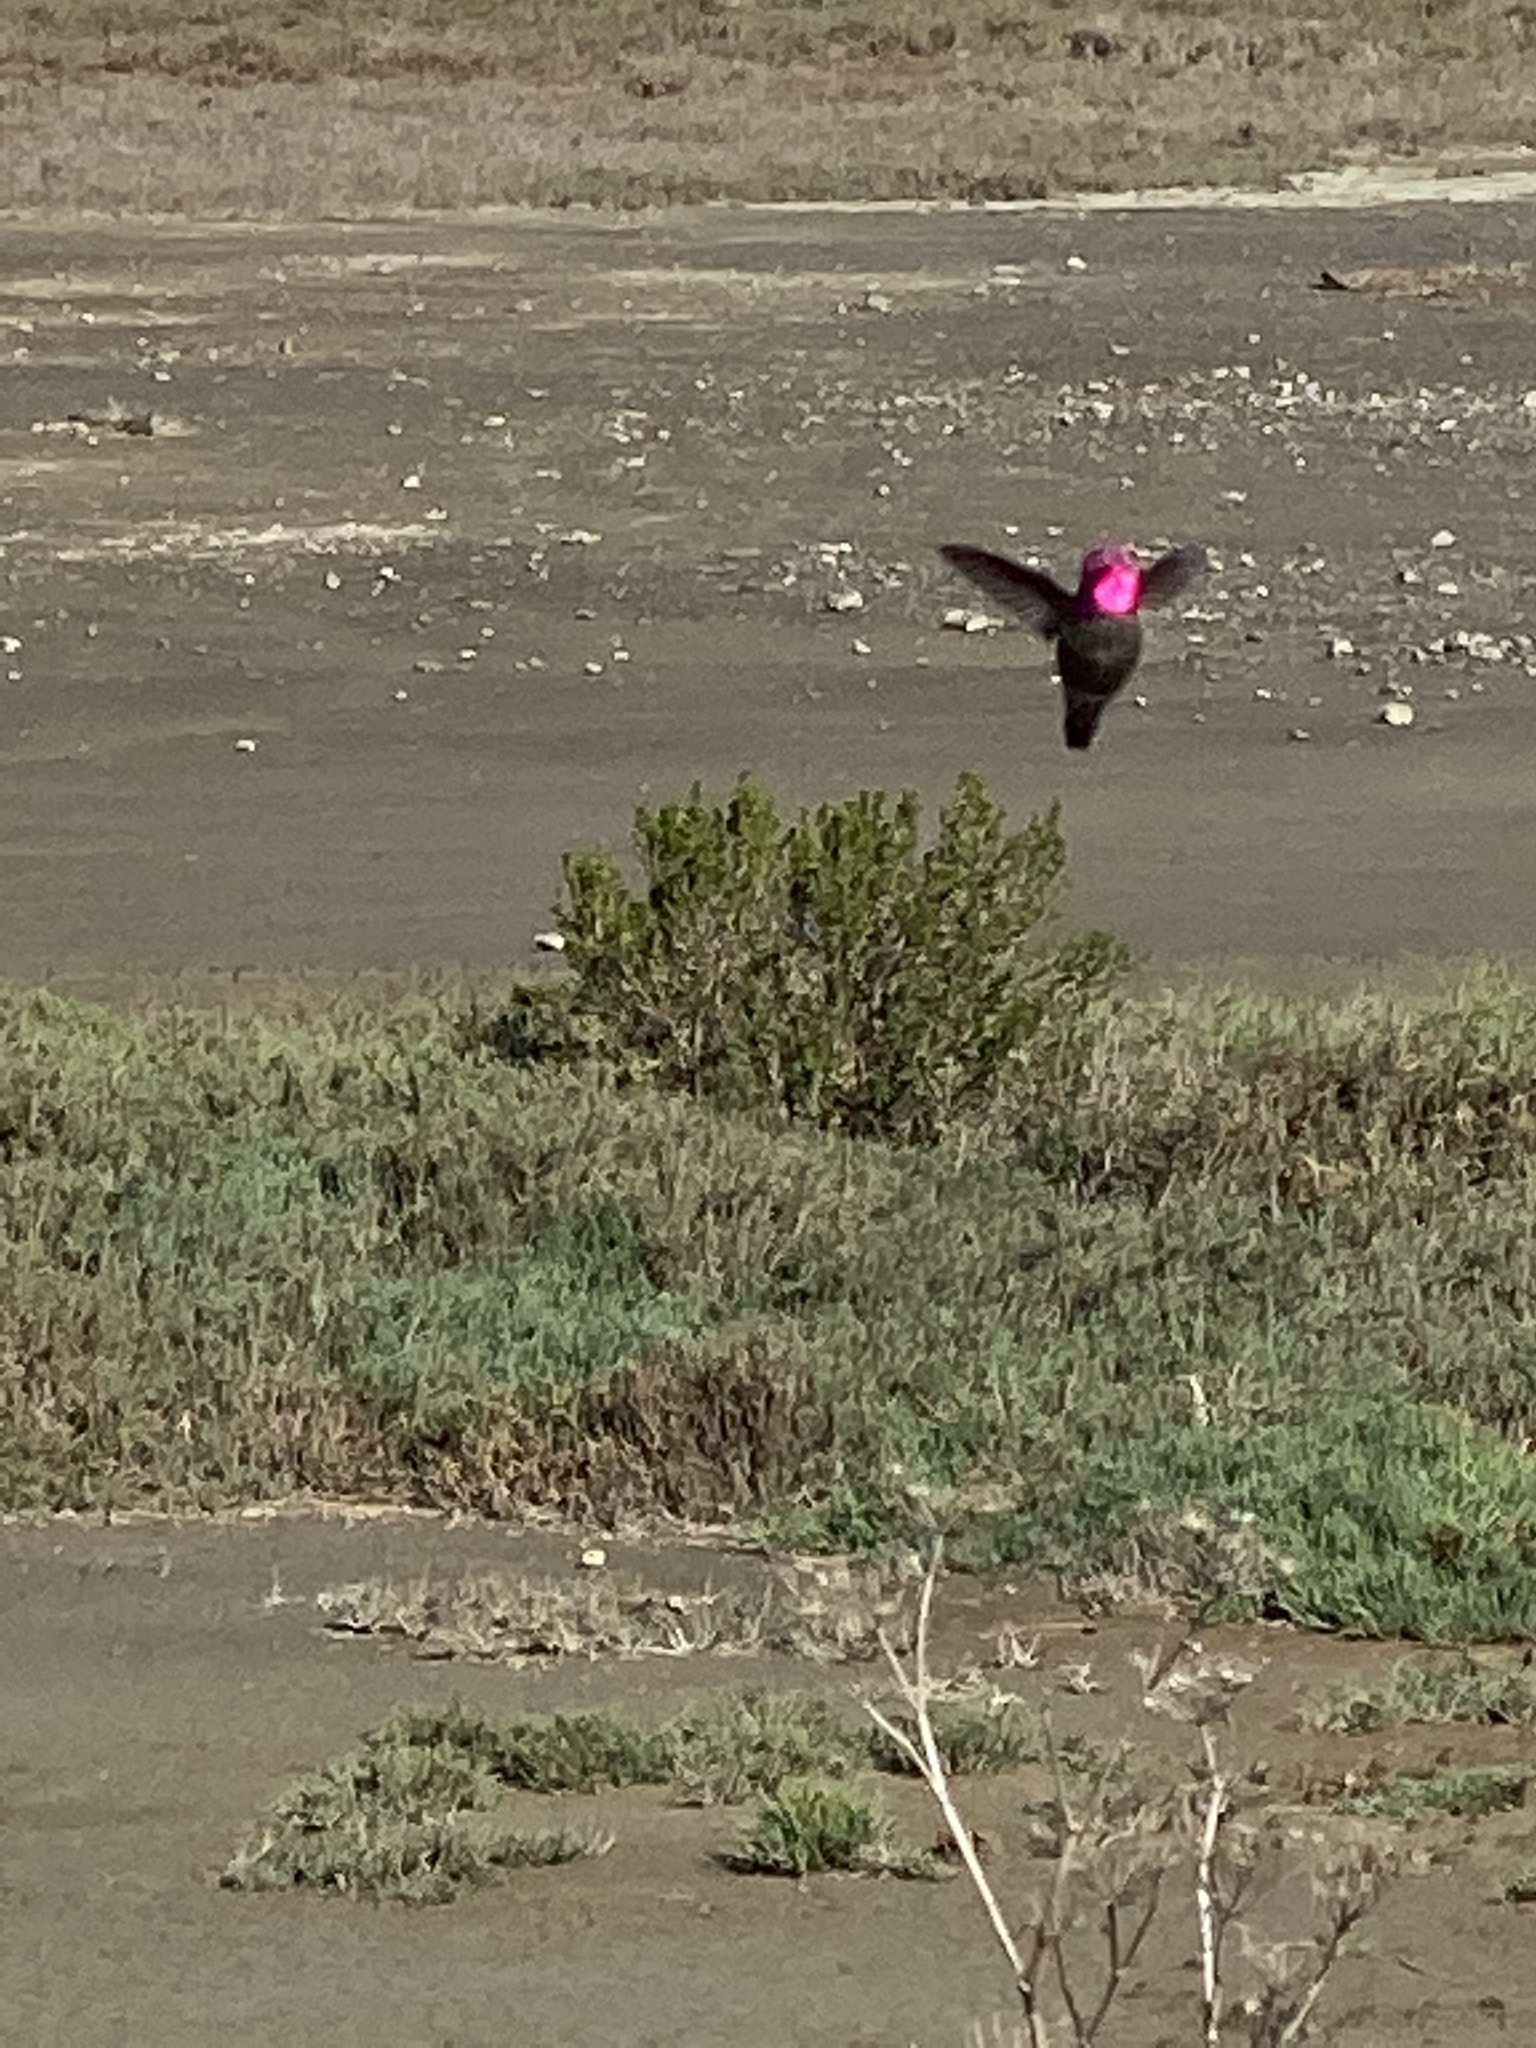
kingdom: Animalia
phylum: Chordata
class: Aves
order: Apodiformes
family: Trochilidae
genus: Calypte
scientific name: Calypte anna
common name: Anna's hummingbird
